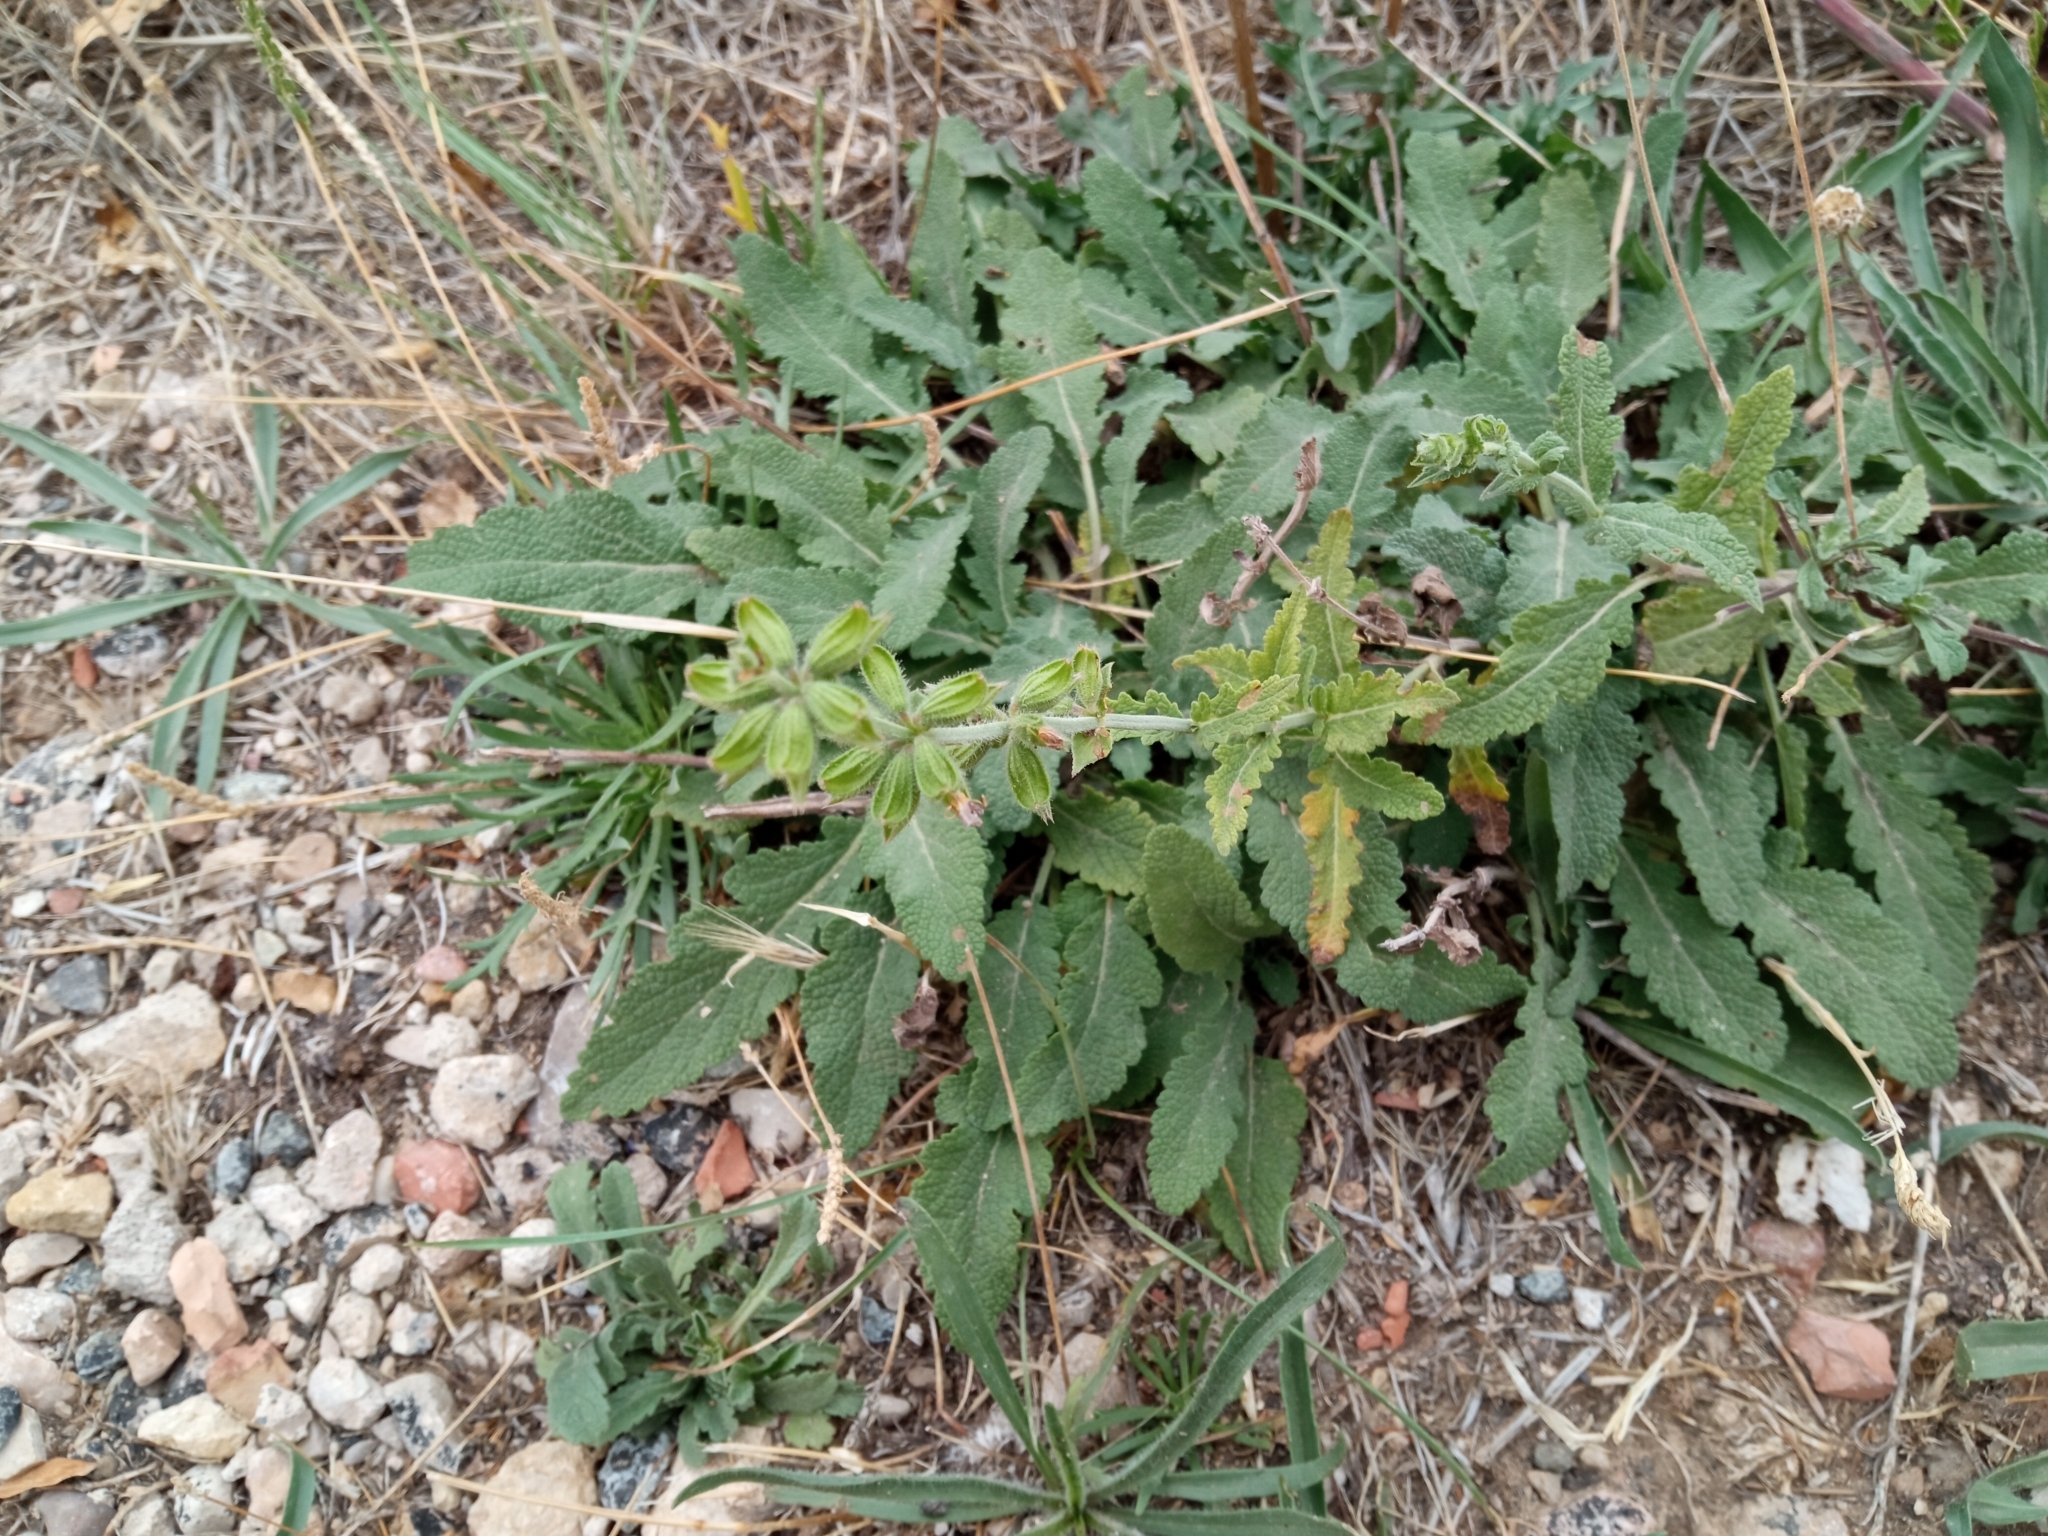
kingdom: Plantae
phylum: Tracheophyta
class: Magnoliopsida
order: Lamiales
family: Lamiaceae
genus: Salvia
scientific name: Salvia verbenaca
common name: Wild clary
